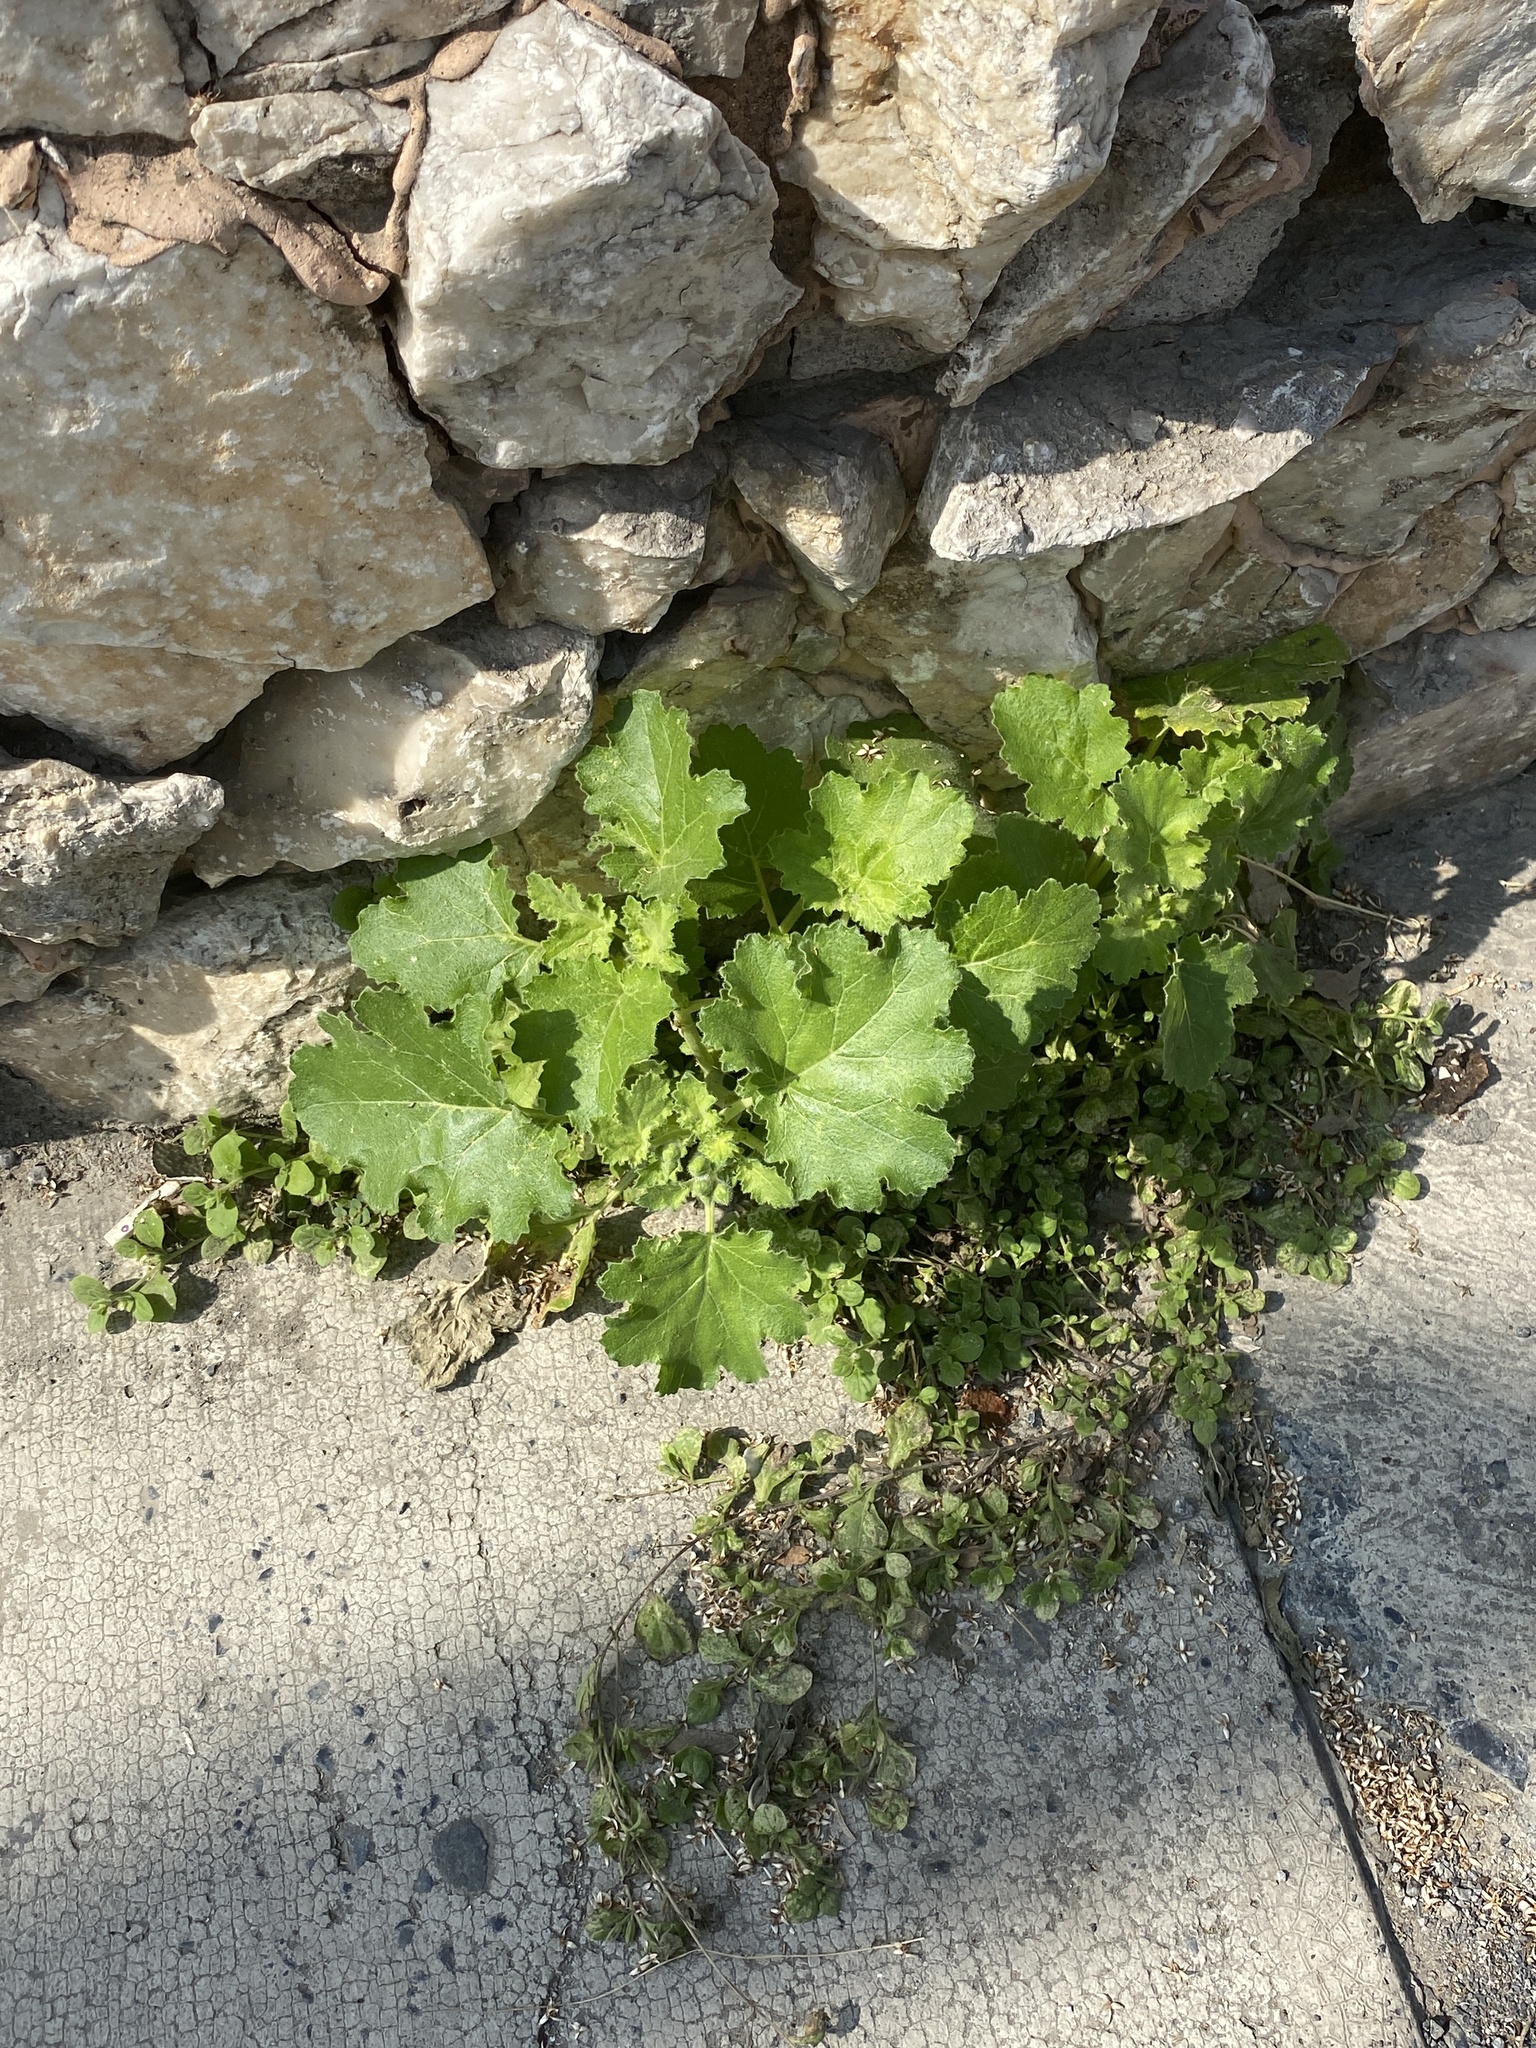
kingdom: Plantae
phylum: Tracheophyta
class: Magnoliopsida
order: Cornales
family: Loasaceae
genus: Eucnide
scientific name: Eucnide lobata
